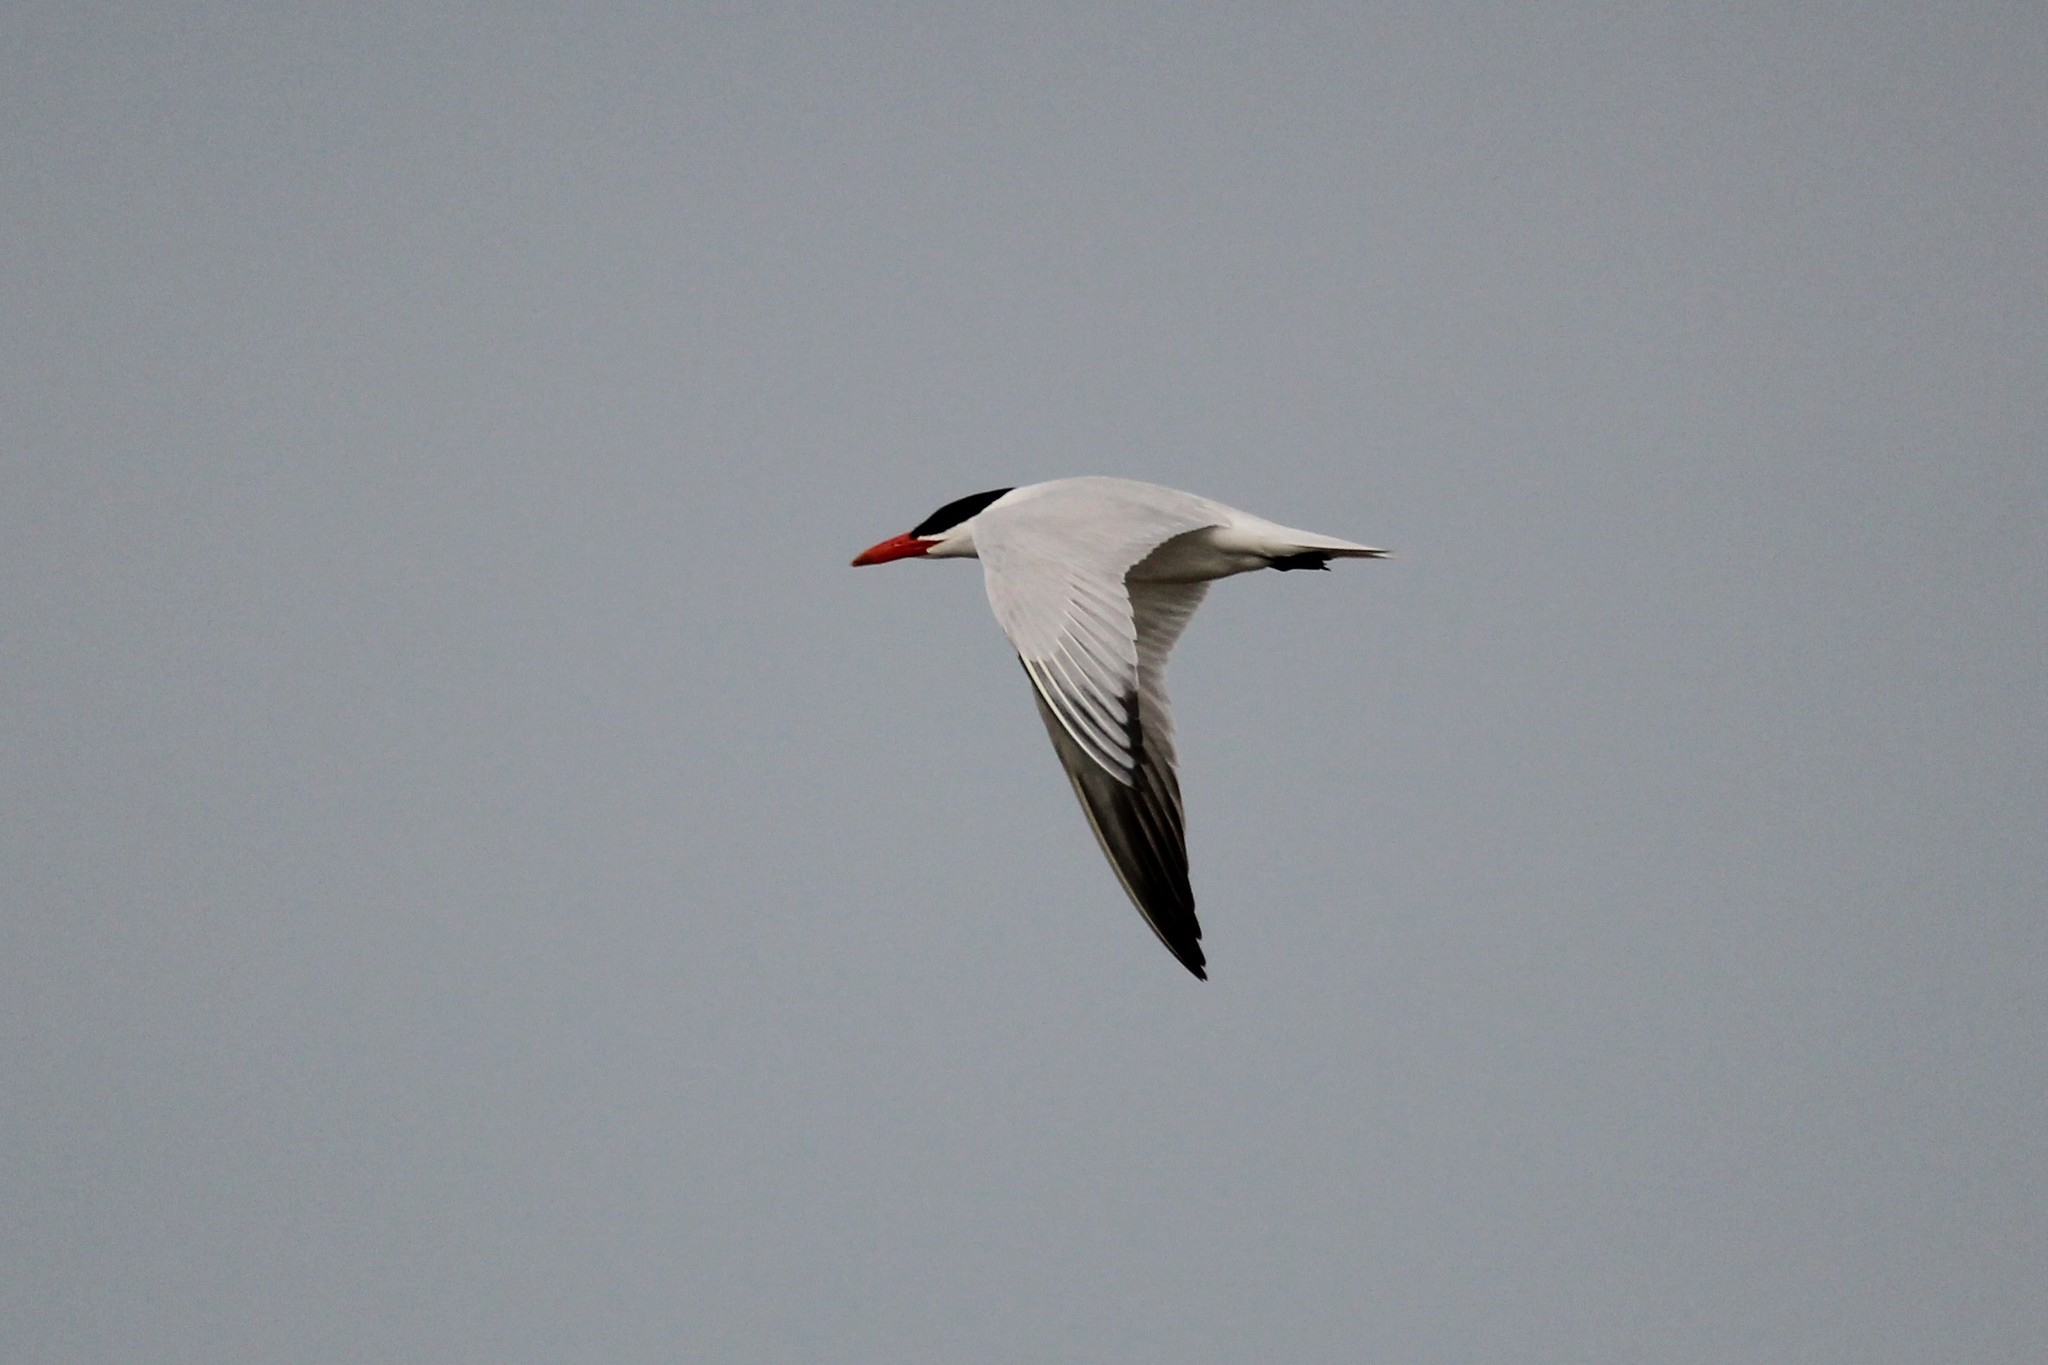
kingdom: Animalia
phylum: Chordata
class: Aves
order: Charadriiformes
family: Laridae
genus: Hydroprogne
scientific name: Hydroprogne caspia
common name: Caspian tern
